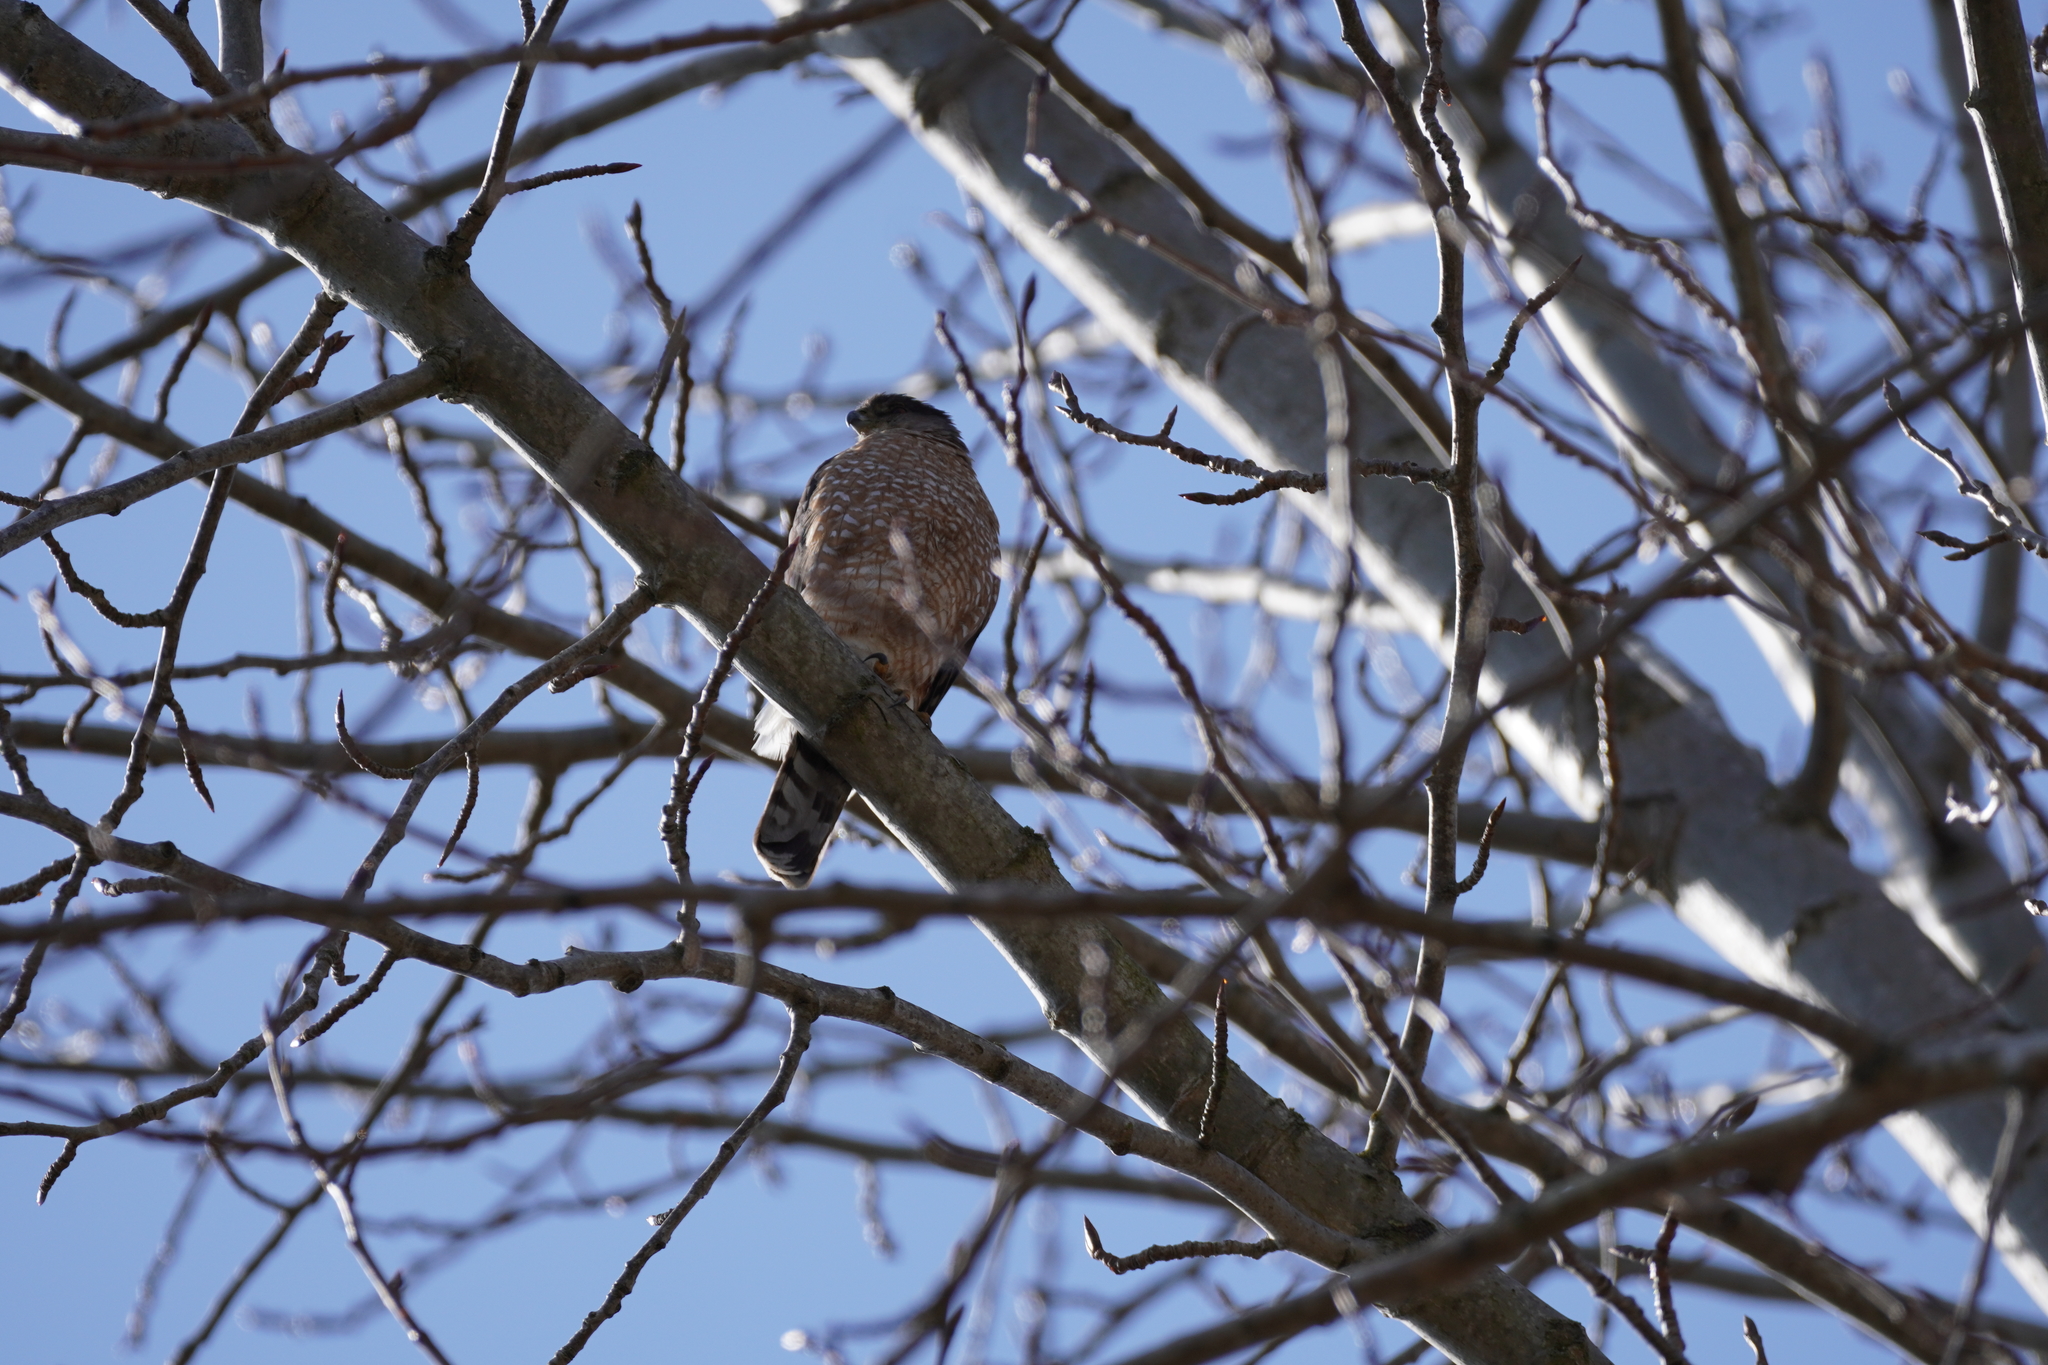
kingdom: Animalia
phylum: Chordata
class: Aves
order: Accipitriformes
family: Accipitridae
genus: Accipiter
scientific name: Accipiter cooperii
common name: Cooper's hawk
